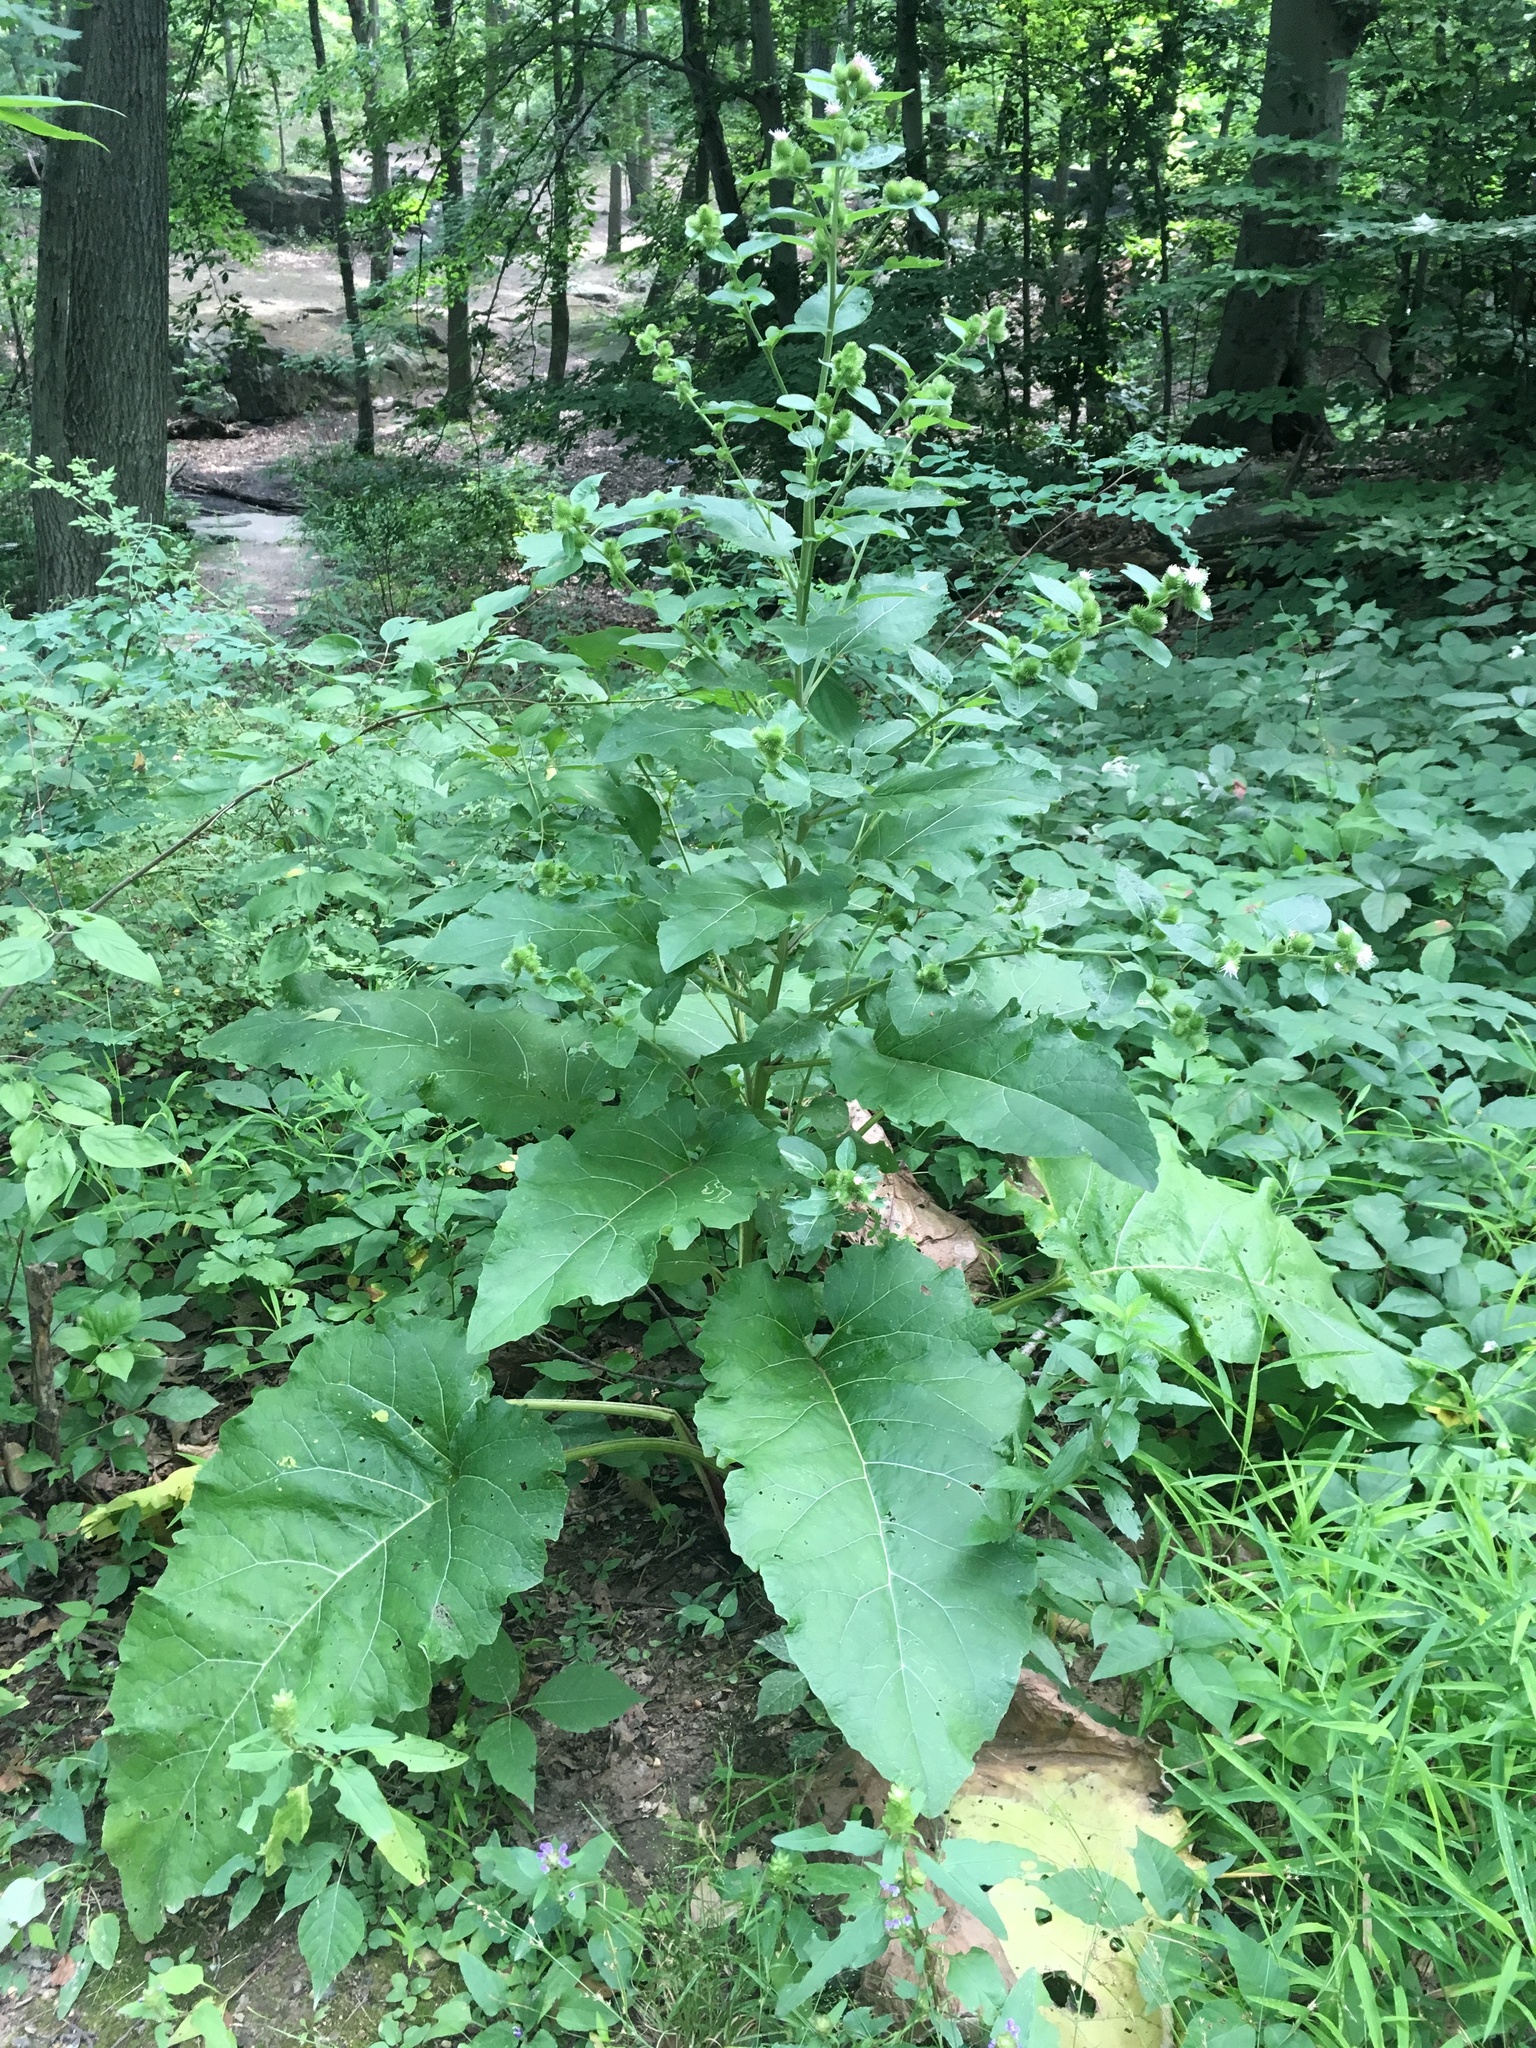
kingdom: Plantae
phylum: Tracheophyta
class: Magnoliopsida
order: Asterales
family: Asteraceae
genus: Arctium
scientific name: Arctium minus
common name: Lesser burdock
